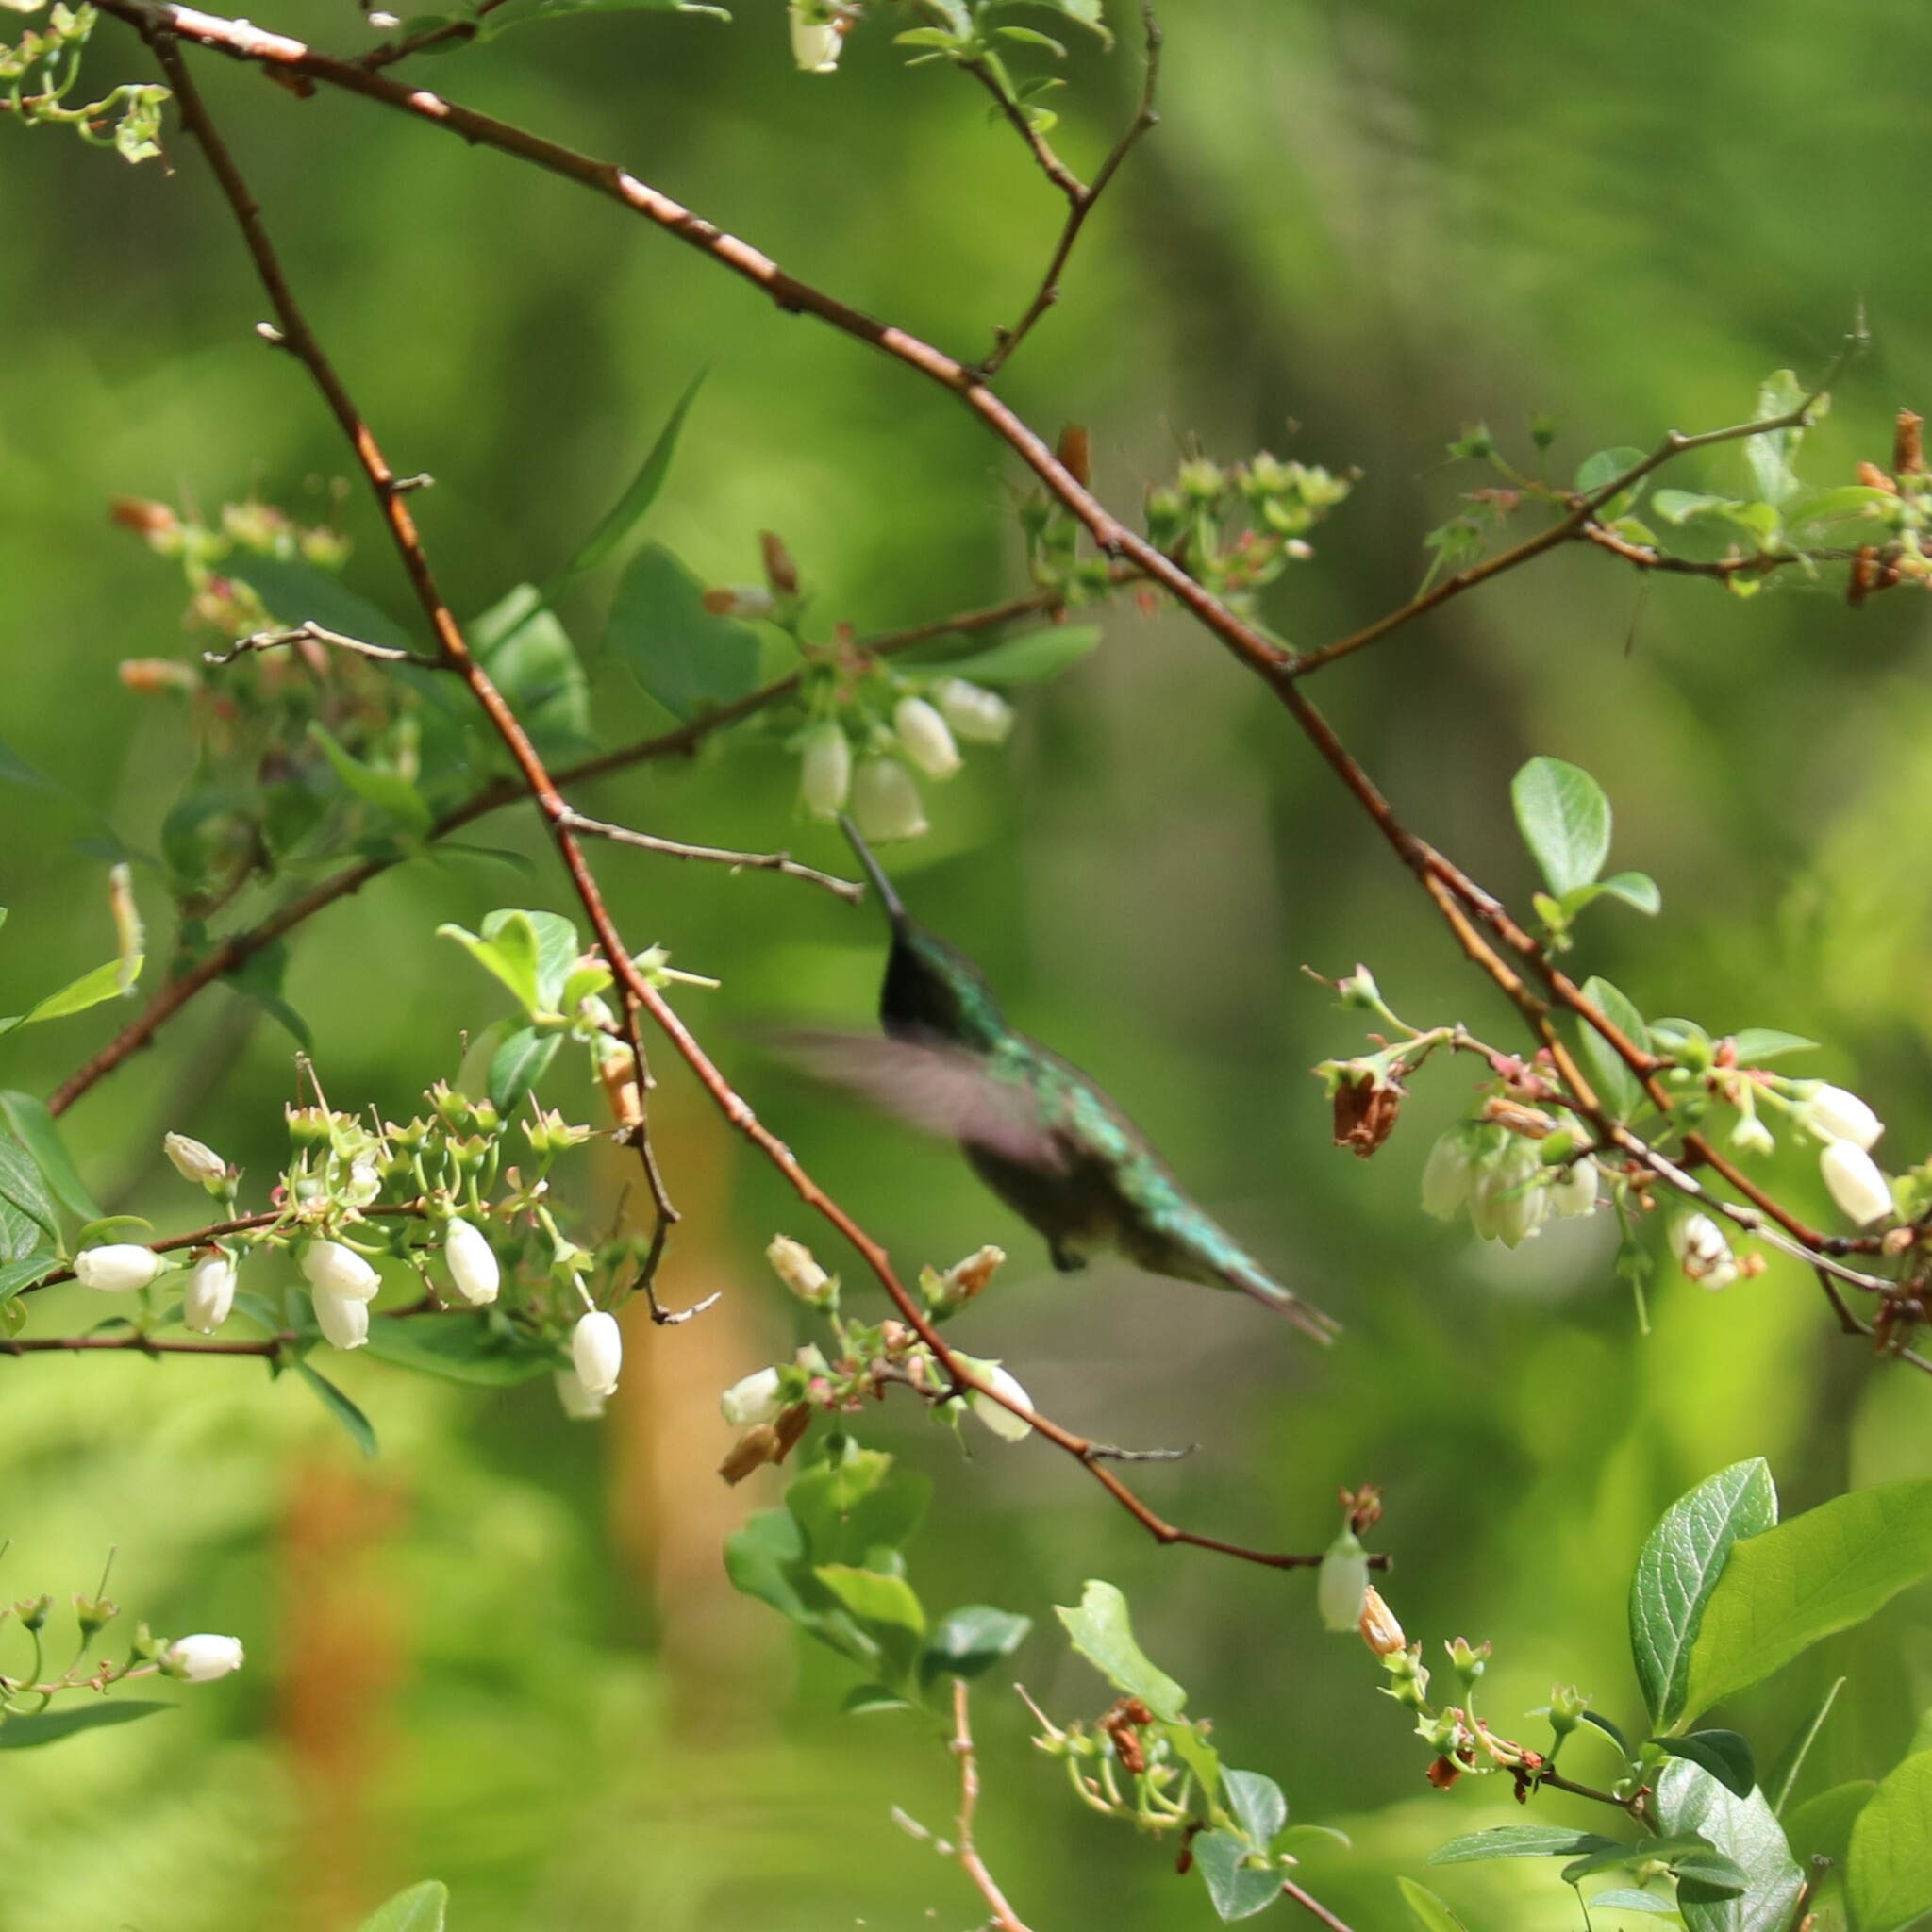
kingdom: Animalia
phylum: Chordata
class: Aves
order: Apodiformes
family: Trochilidae
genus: Archilochus
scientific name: Archilochus colubris
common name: Ruby-throated hummingbird
